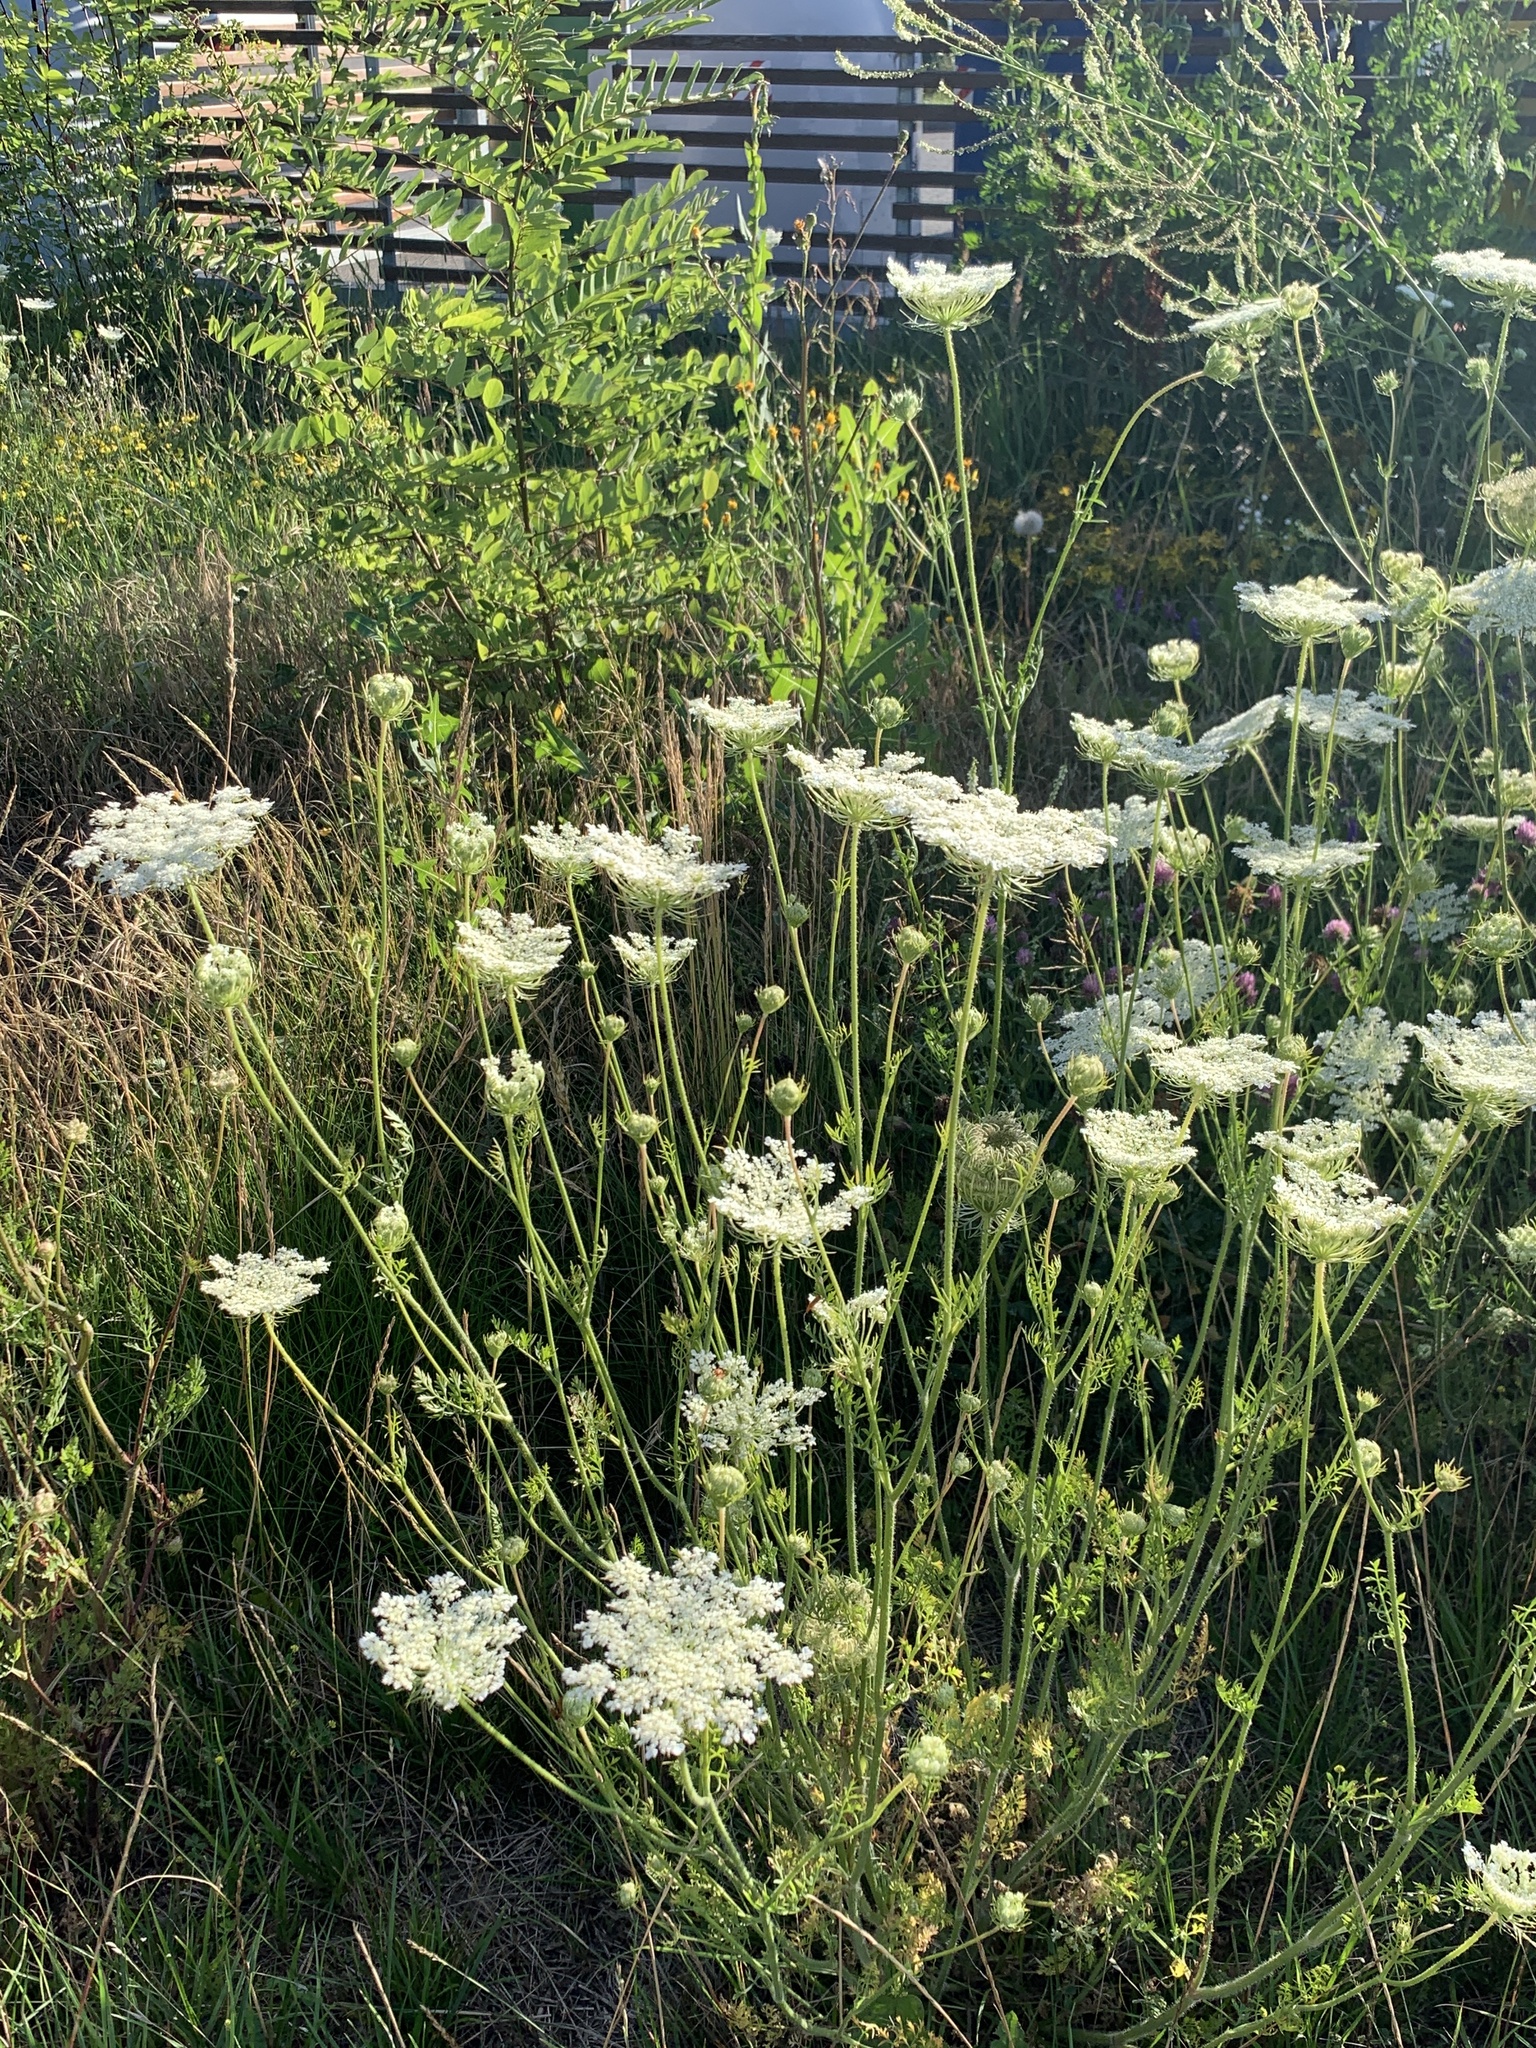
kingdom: Plantae
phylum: Tracheophyta
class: Magnoliopsida
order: Apiales
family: Apiaceae
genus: Daucus
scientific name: Daucus carota
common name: Wild carrot
